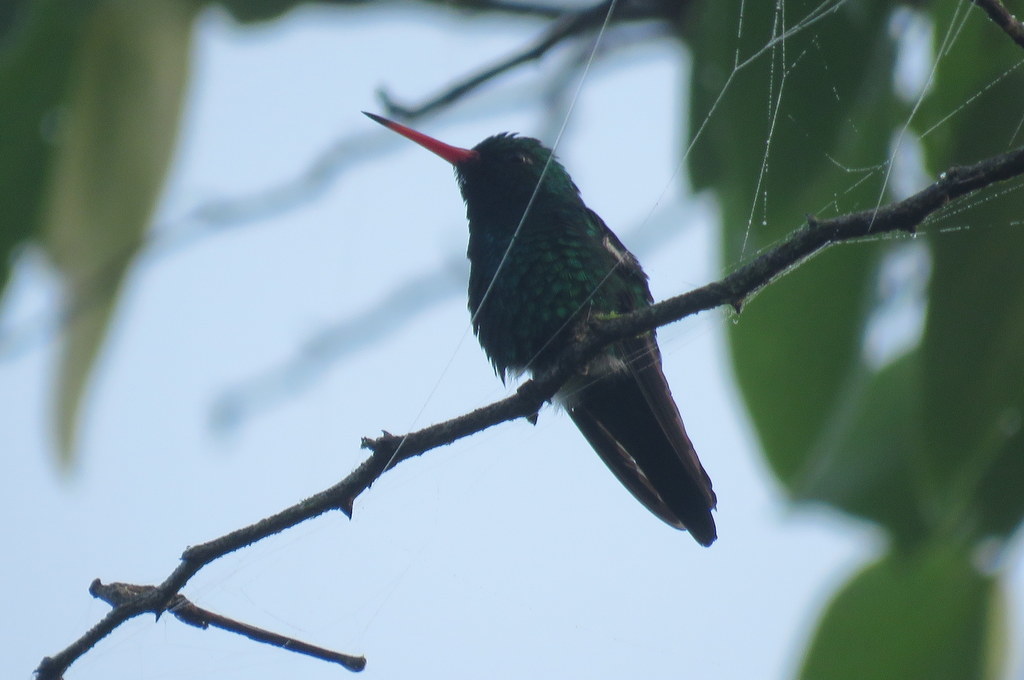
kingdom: Animalia
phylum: Chordata
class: Aves
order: Apodiformes
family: Trochilidae
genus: Chlorostilbon
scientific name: Chlorostilbon lucidus
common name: Glittering-bellied emerald
